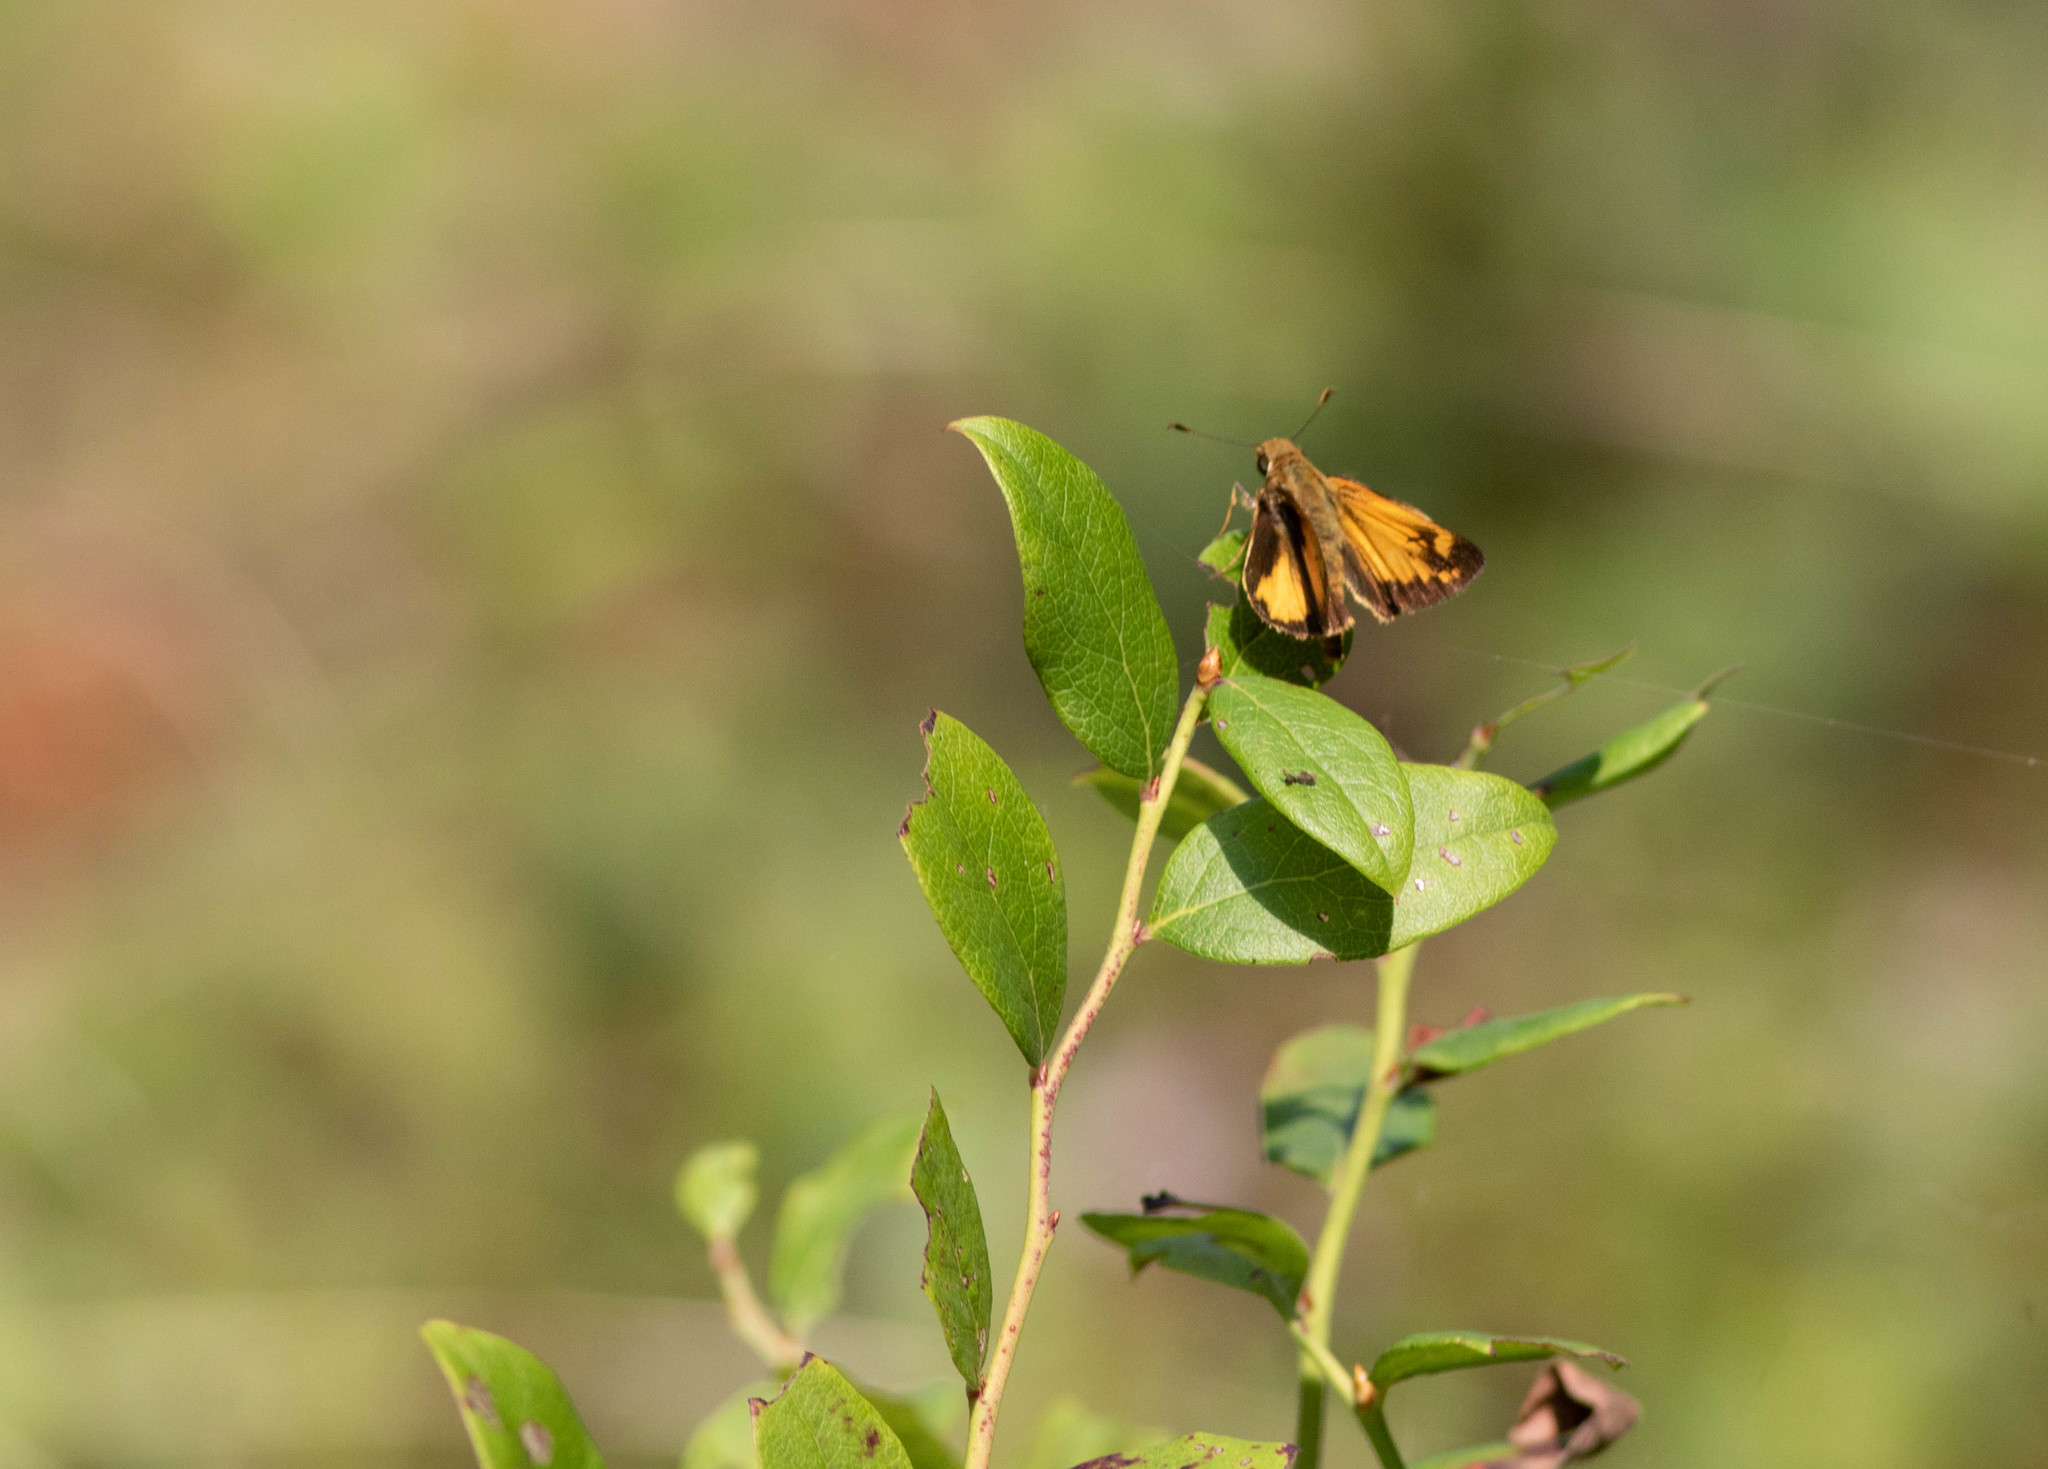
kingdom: Animalia
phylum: Arthropoda
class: Insecta
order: Lepidoptera
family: Hesperiidae
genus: Lon
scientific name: Lon zabulon
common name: Zabulon skipper
